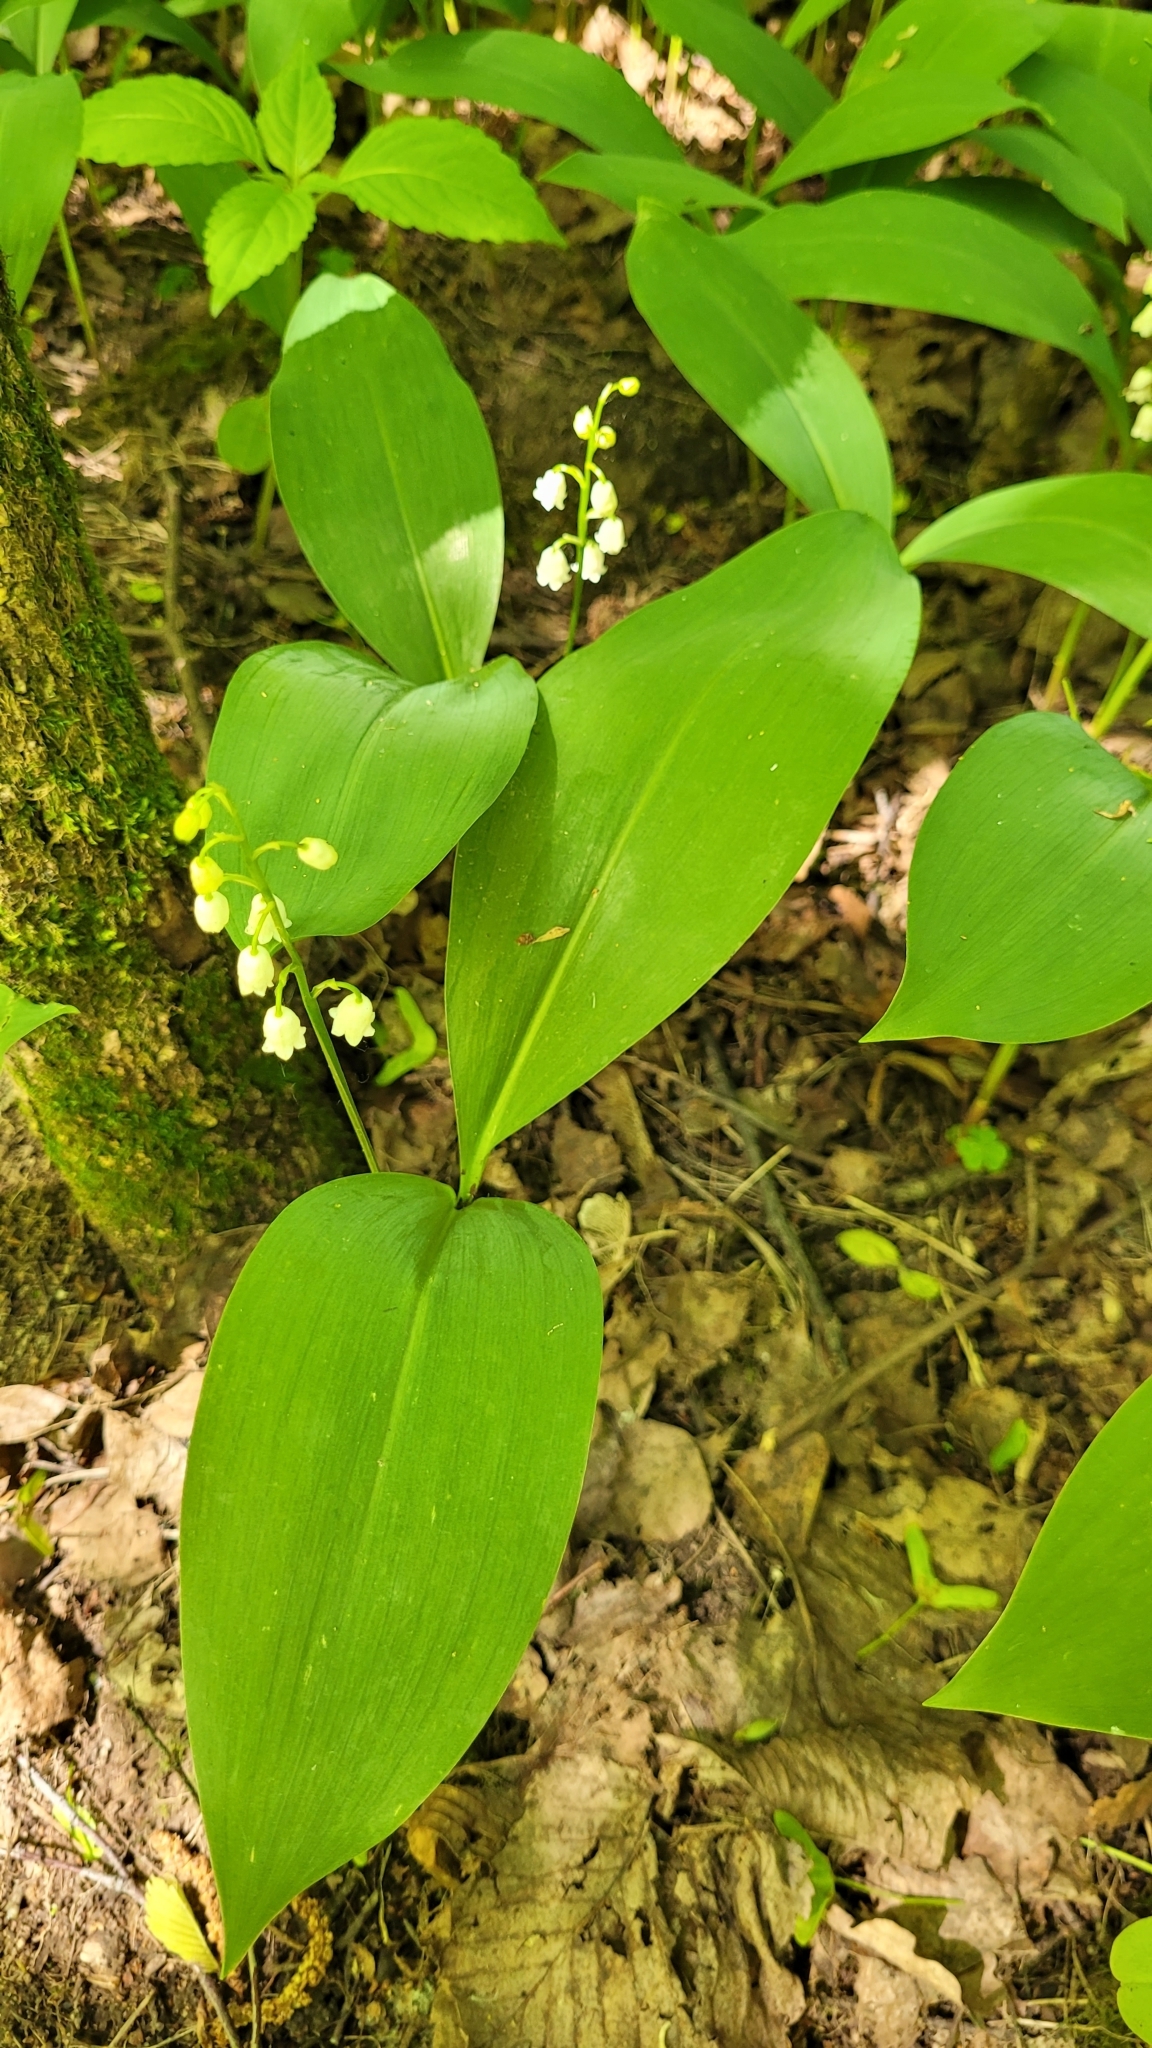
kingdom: Plantae
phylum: Tracheophyta
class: Liliopsida
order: Asparagales
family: Asparagaceae
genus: Convallaria
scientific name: Convallaria majalis
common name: Lily-of-the-valley
